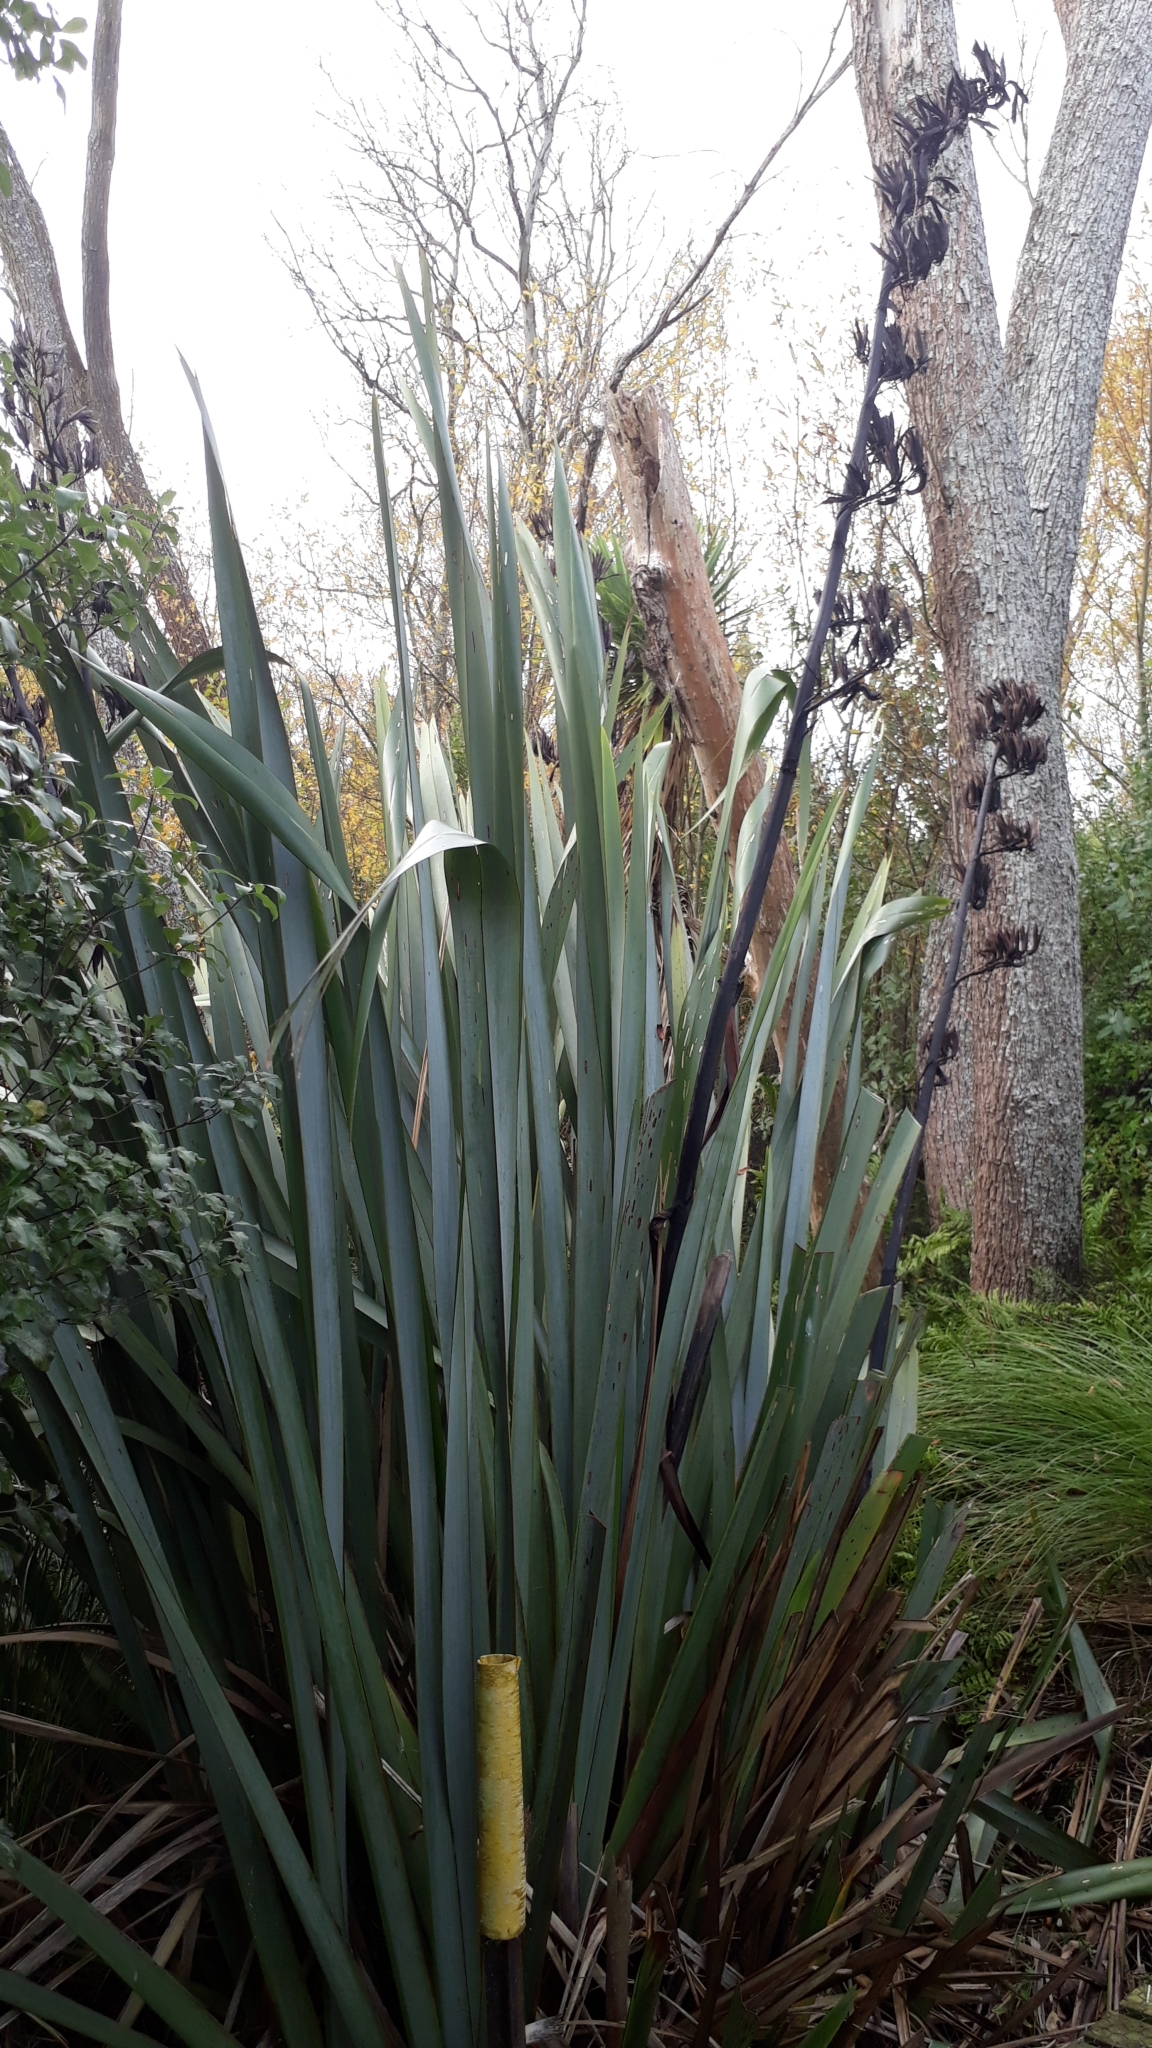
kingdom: Plantae
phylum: Tracheophyta
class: Liliopsida
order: Asparagales
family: Asphodelaceae
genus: Phormium
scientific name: Phormium tenax
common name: New zealand flax
